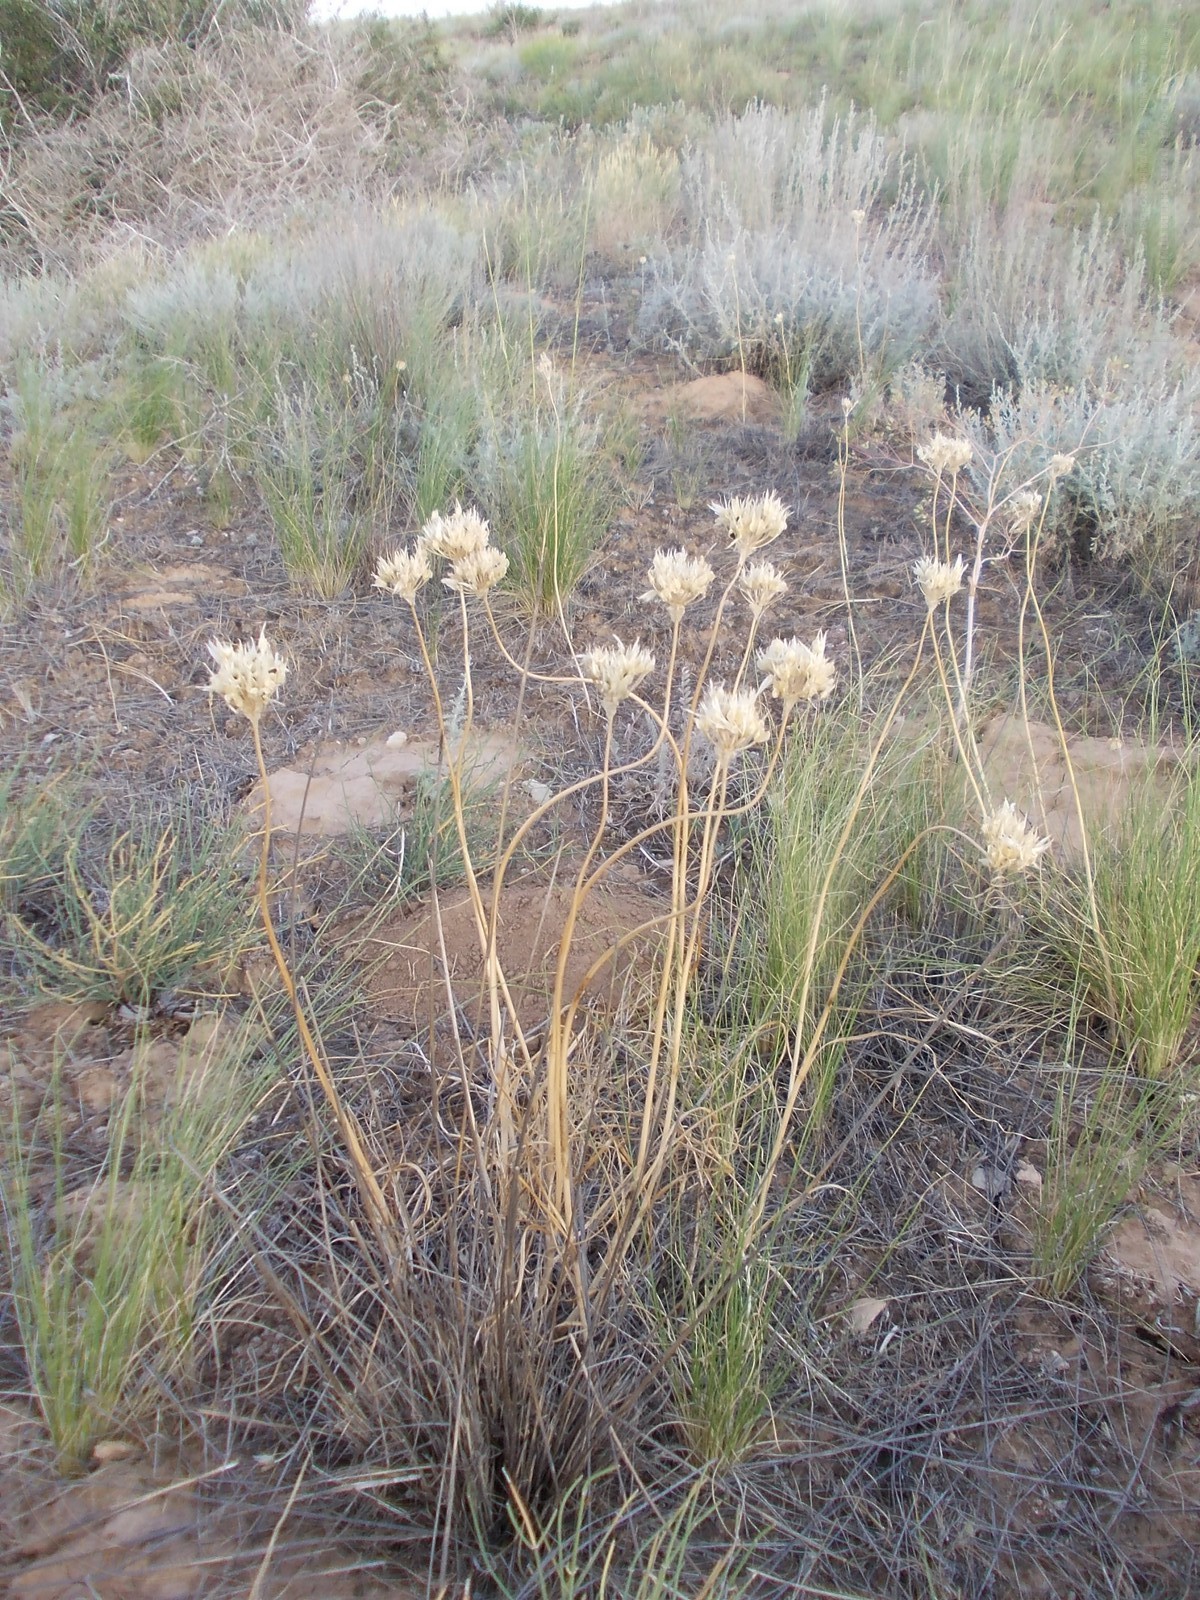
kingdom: Plantae
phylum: Tracheophyta
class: Liliopsida
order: Asparagales
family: Amaryllidaceae
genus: Allium
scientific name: Allium inderiense
